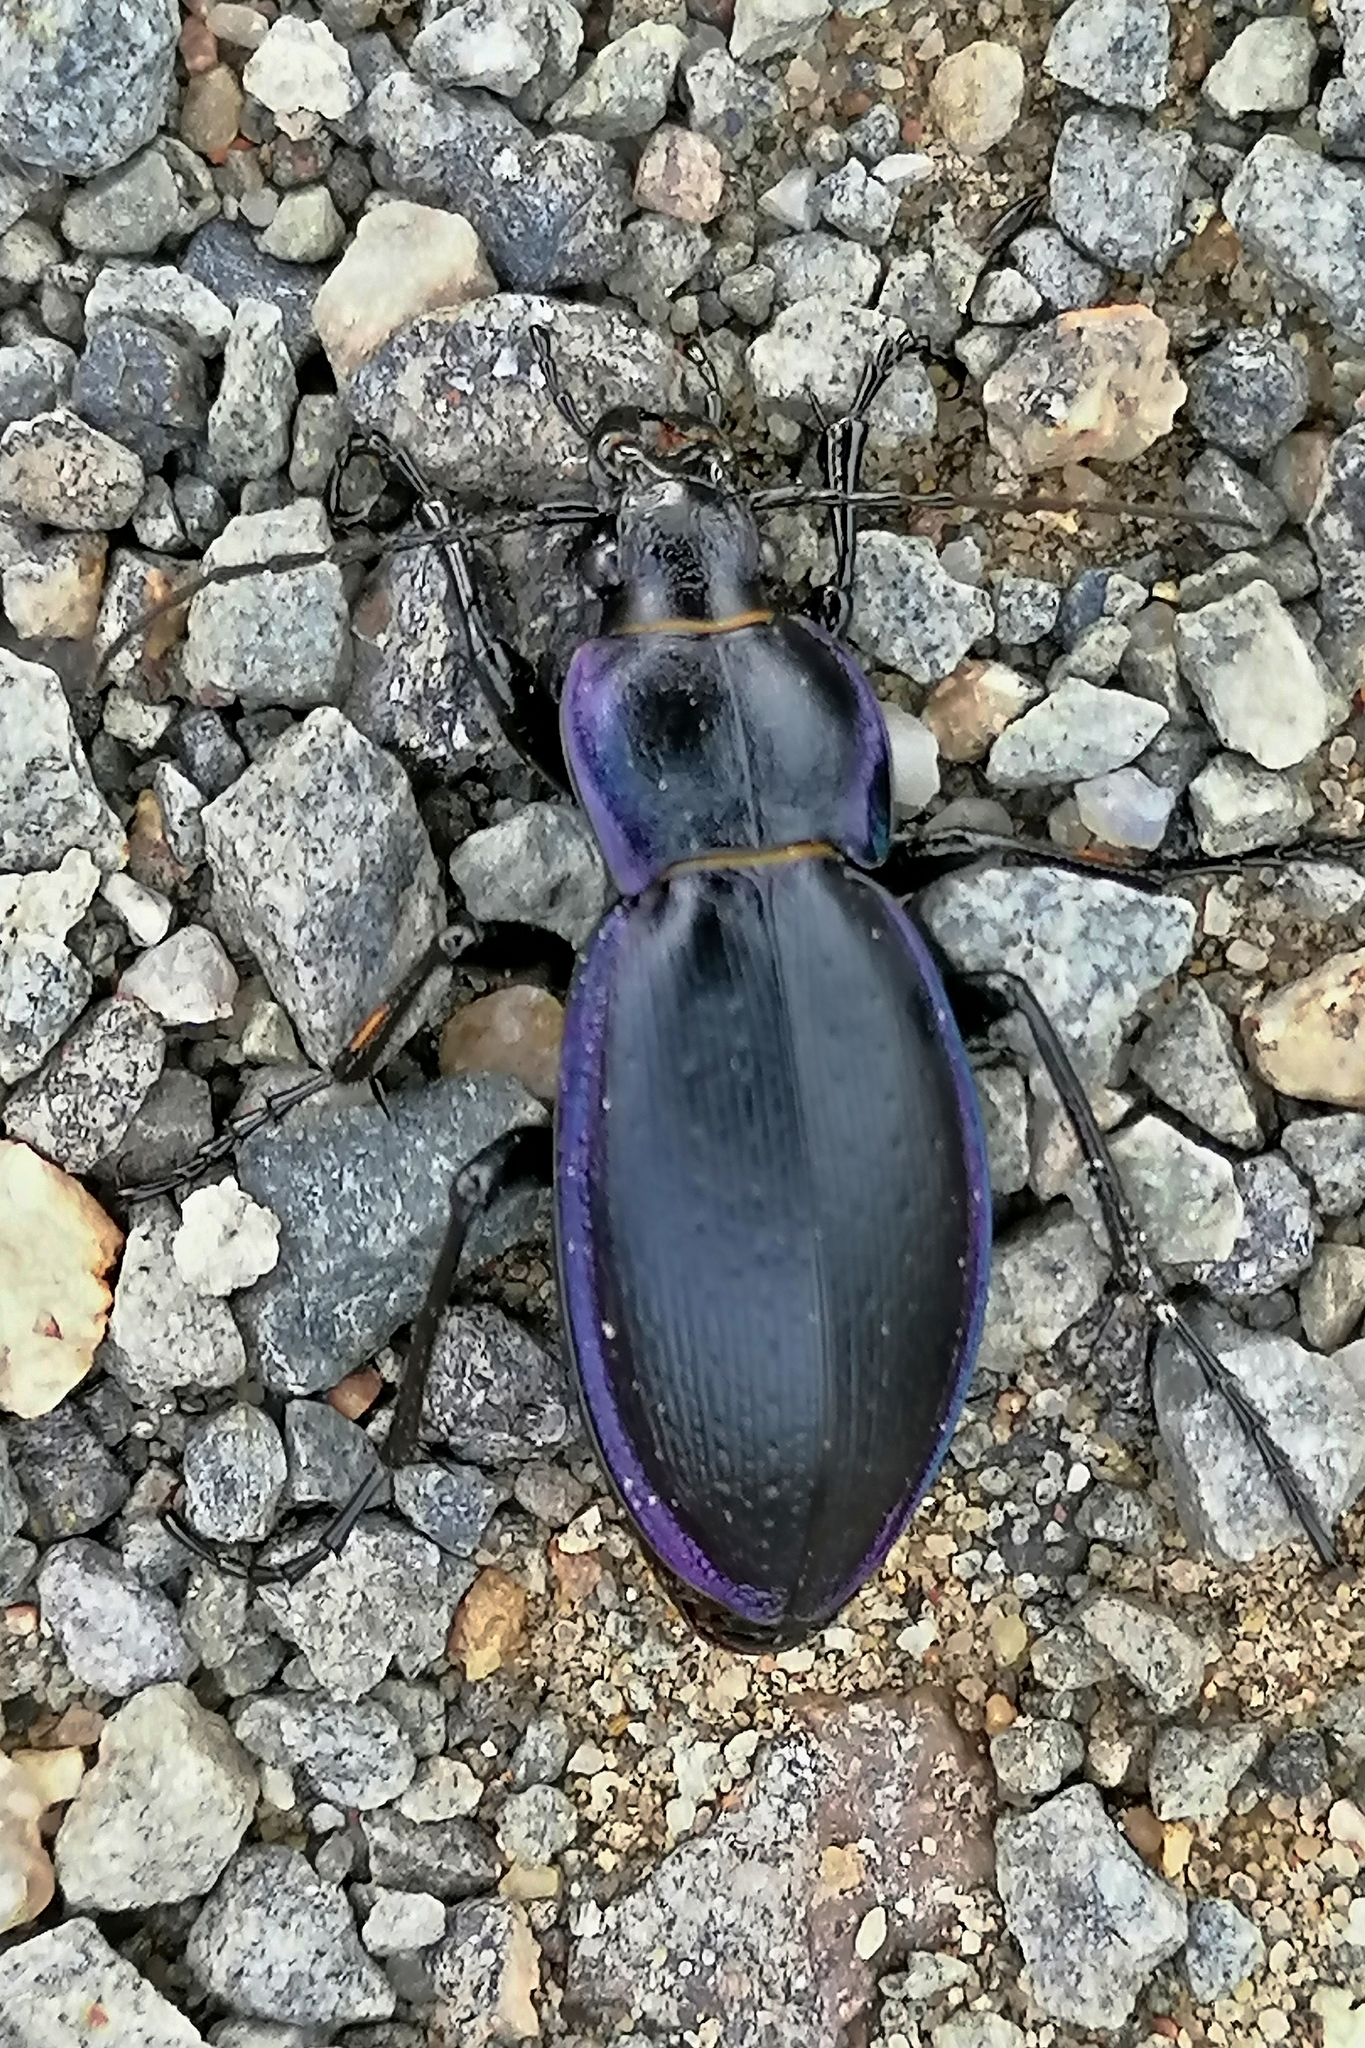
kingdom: Animalia
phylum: Arthropoda
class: Insecta
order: Coleoptera
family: Carabidae
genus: Carabus
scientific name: Carabus scheidleri
